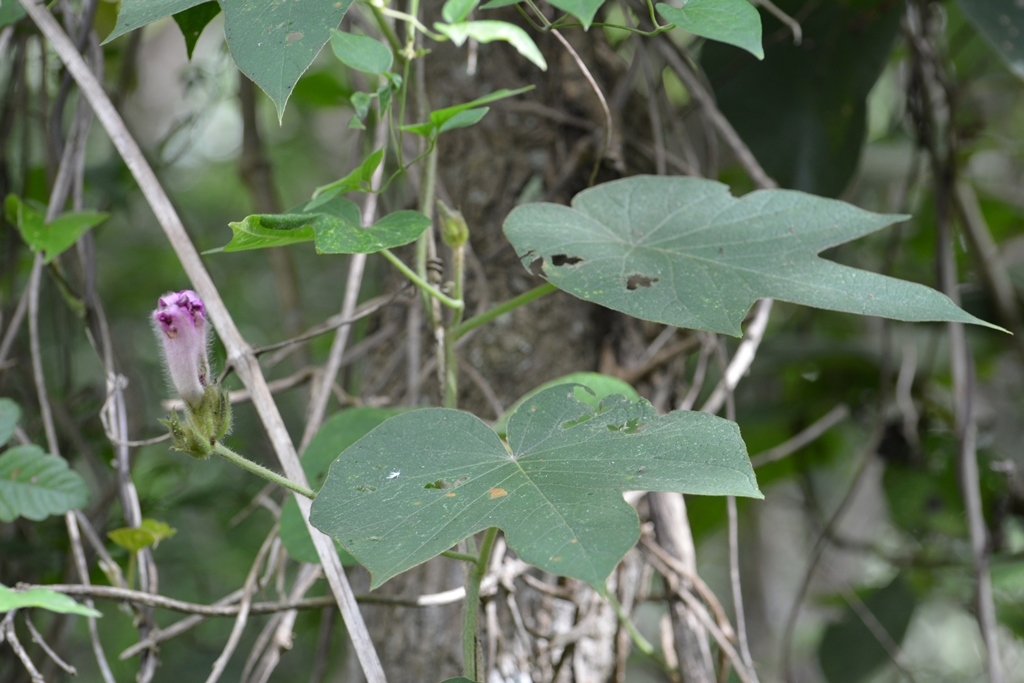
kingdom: Plantae
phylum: Tracheophyta
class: Magnoliopsida
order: Solanales
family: Convolvulaceae
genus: Ipomoea
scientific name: Ipomoea villifera
